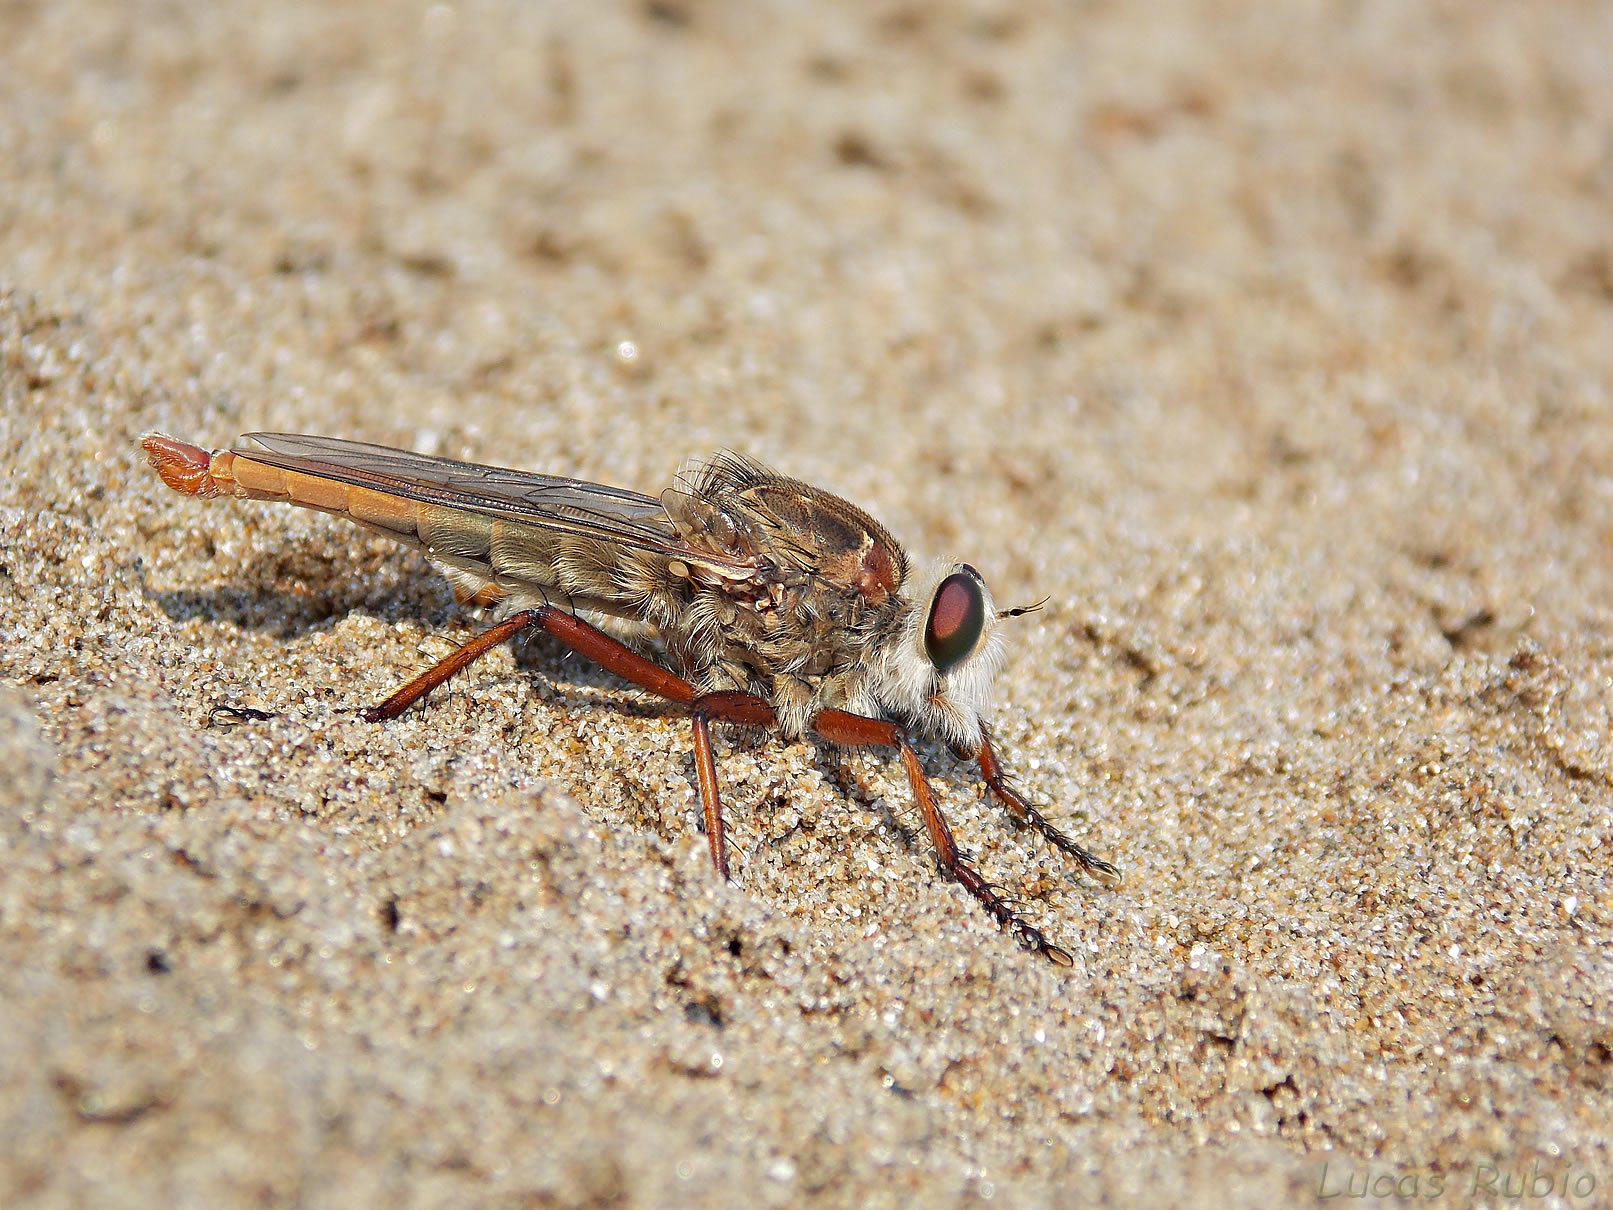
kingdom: Animalia
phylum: Arthropoda
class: Insecta
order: Diptera
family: Asilidae
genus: Taurhynchus
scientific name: Taurhynchus
